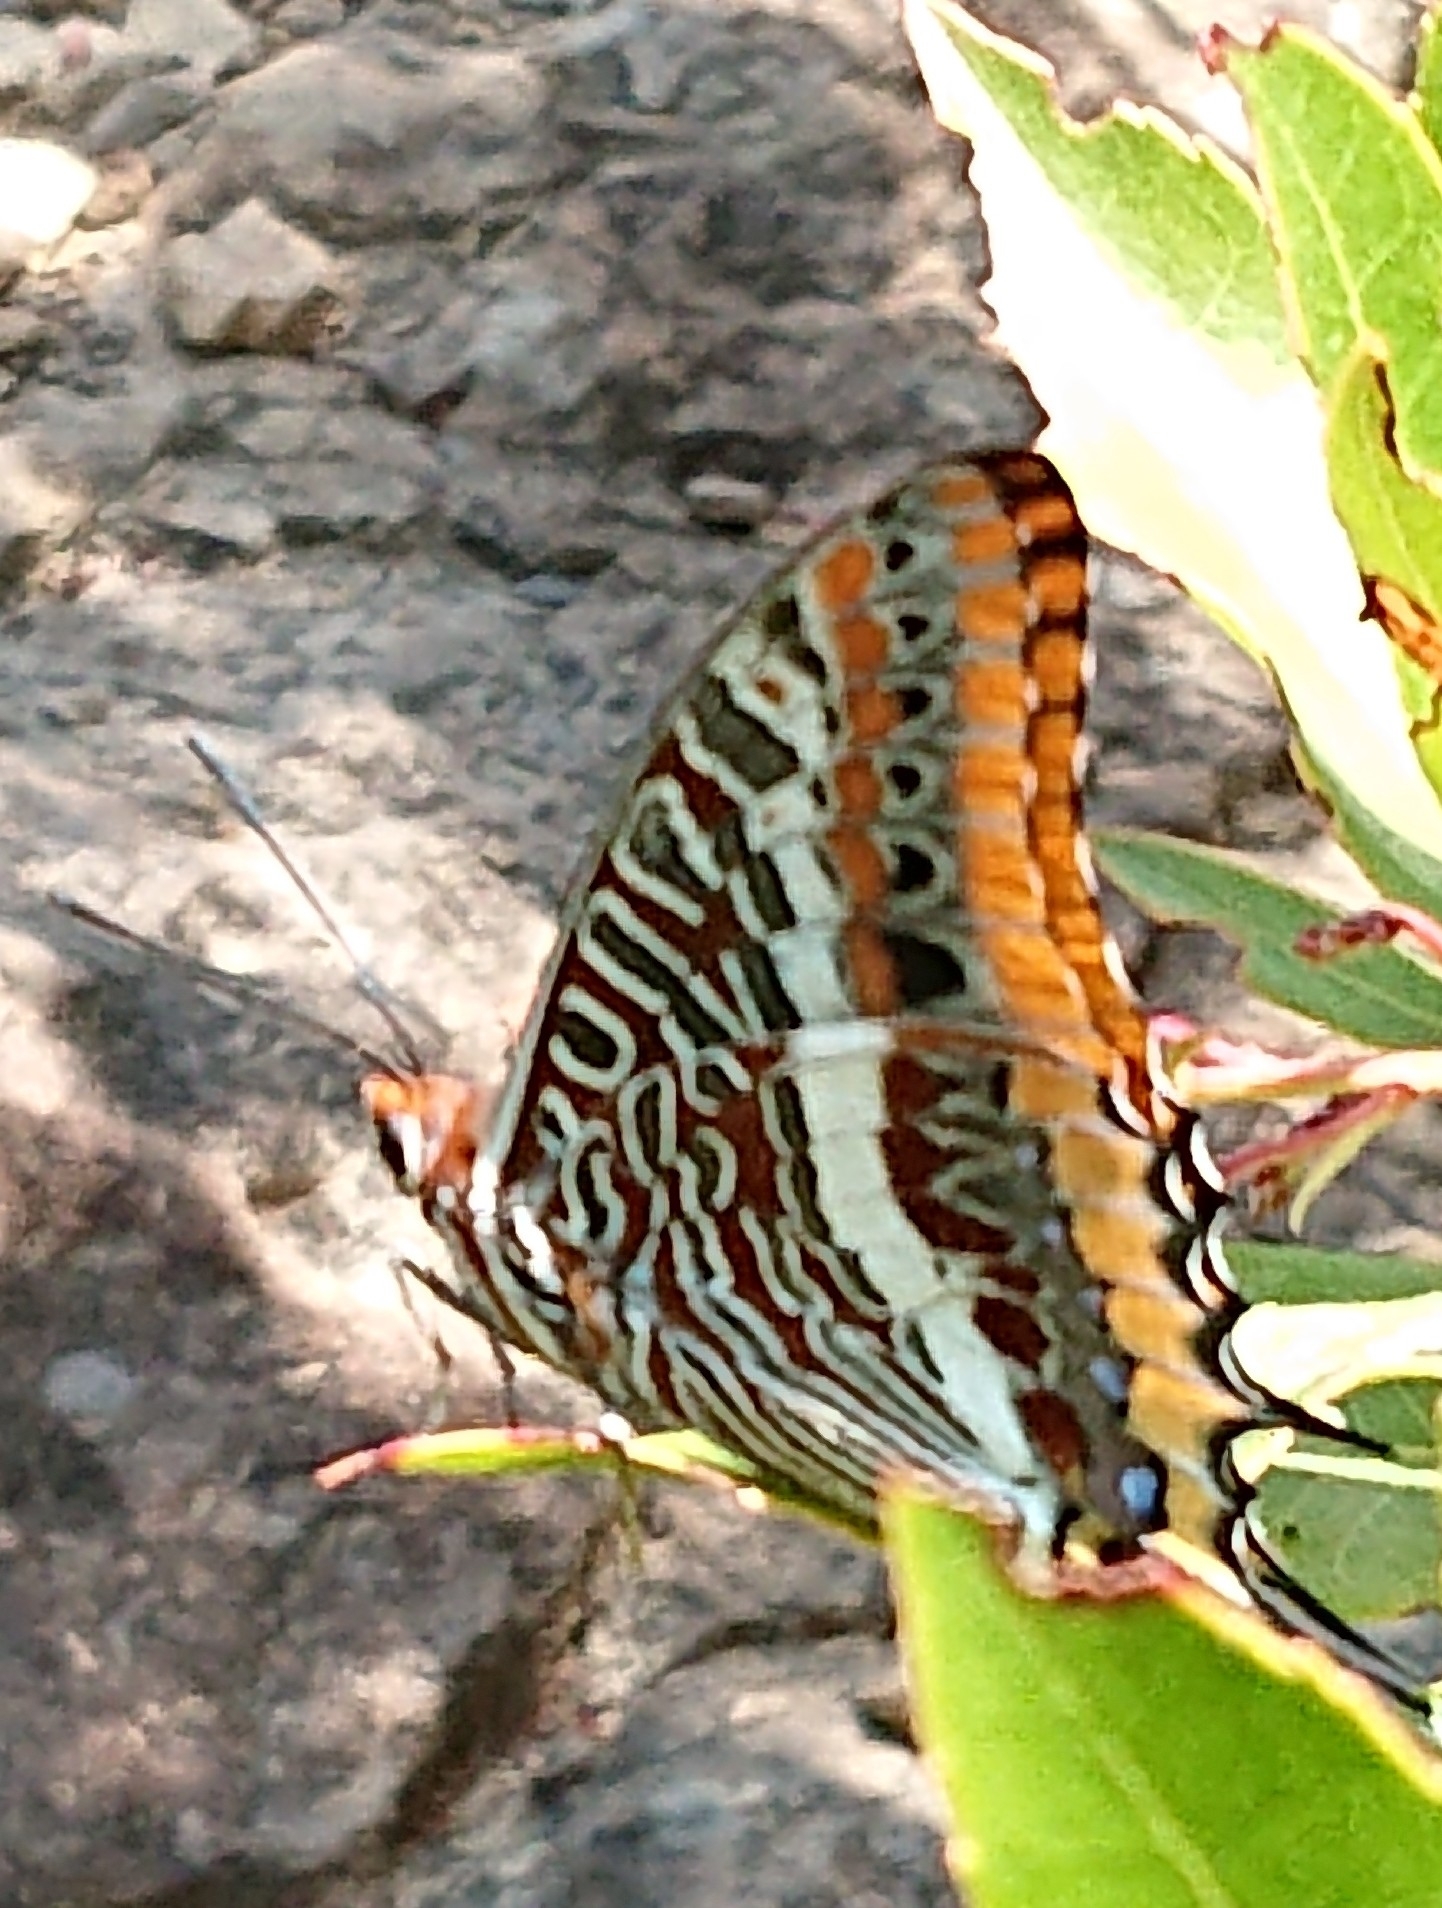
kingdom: Animalia
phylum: Arthropoda
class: Insecta
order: Lepidoptera
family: Nymphalidae
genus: Charaxes
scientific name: Charaxes jasius
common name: Two tailed pasha
